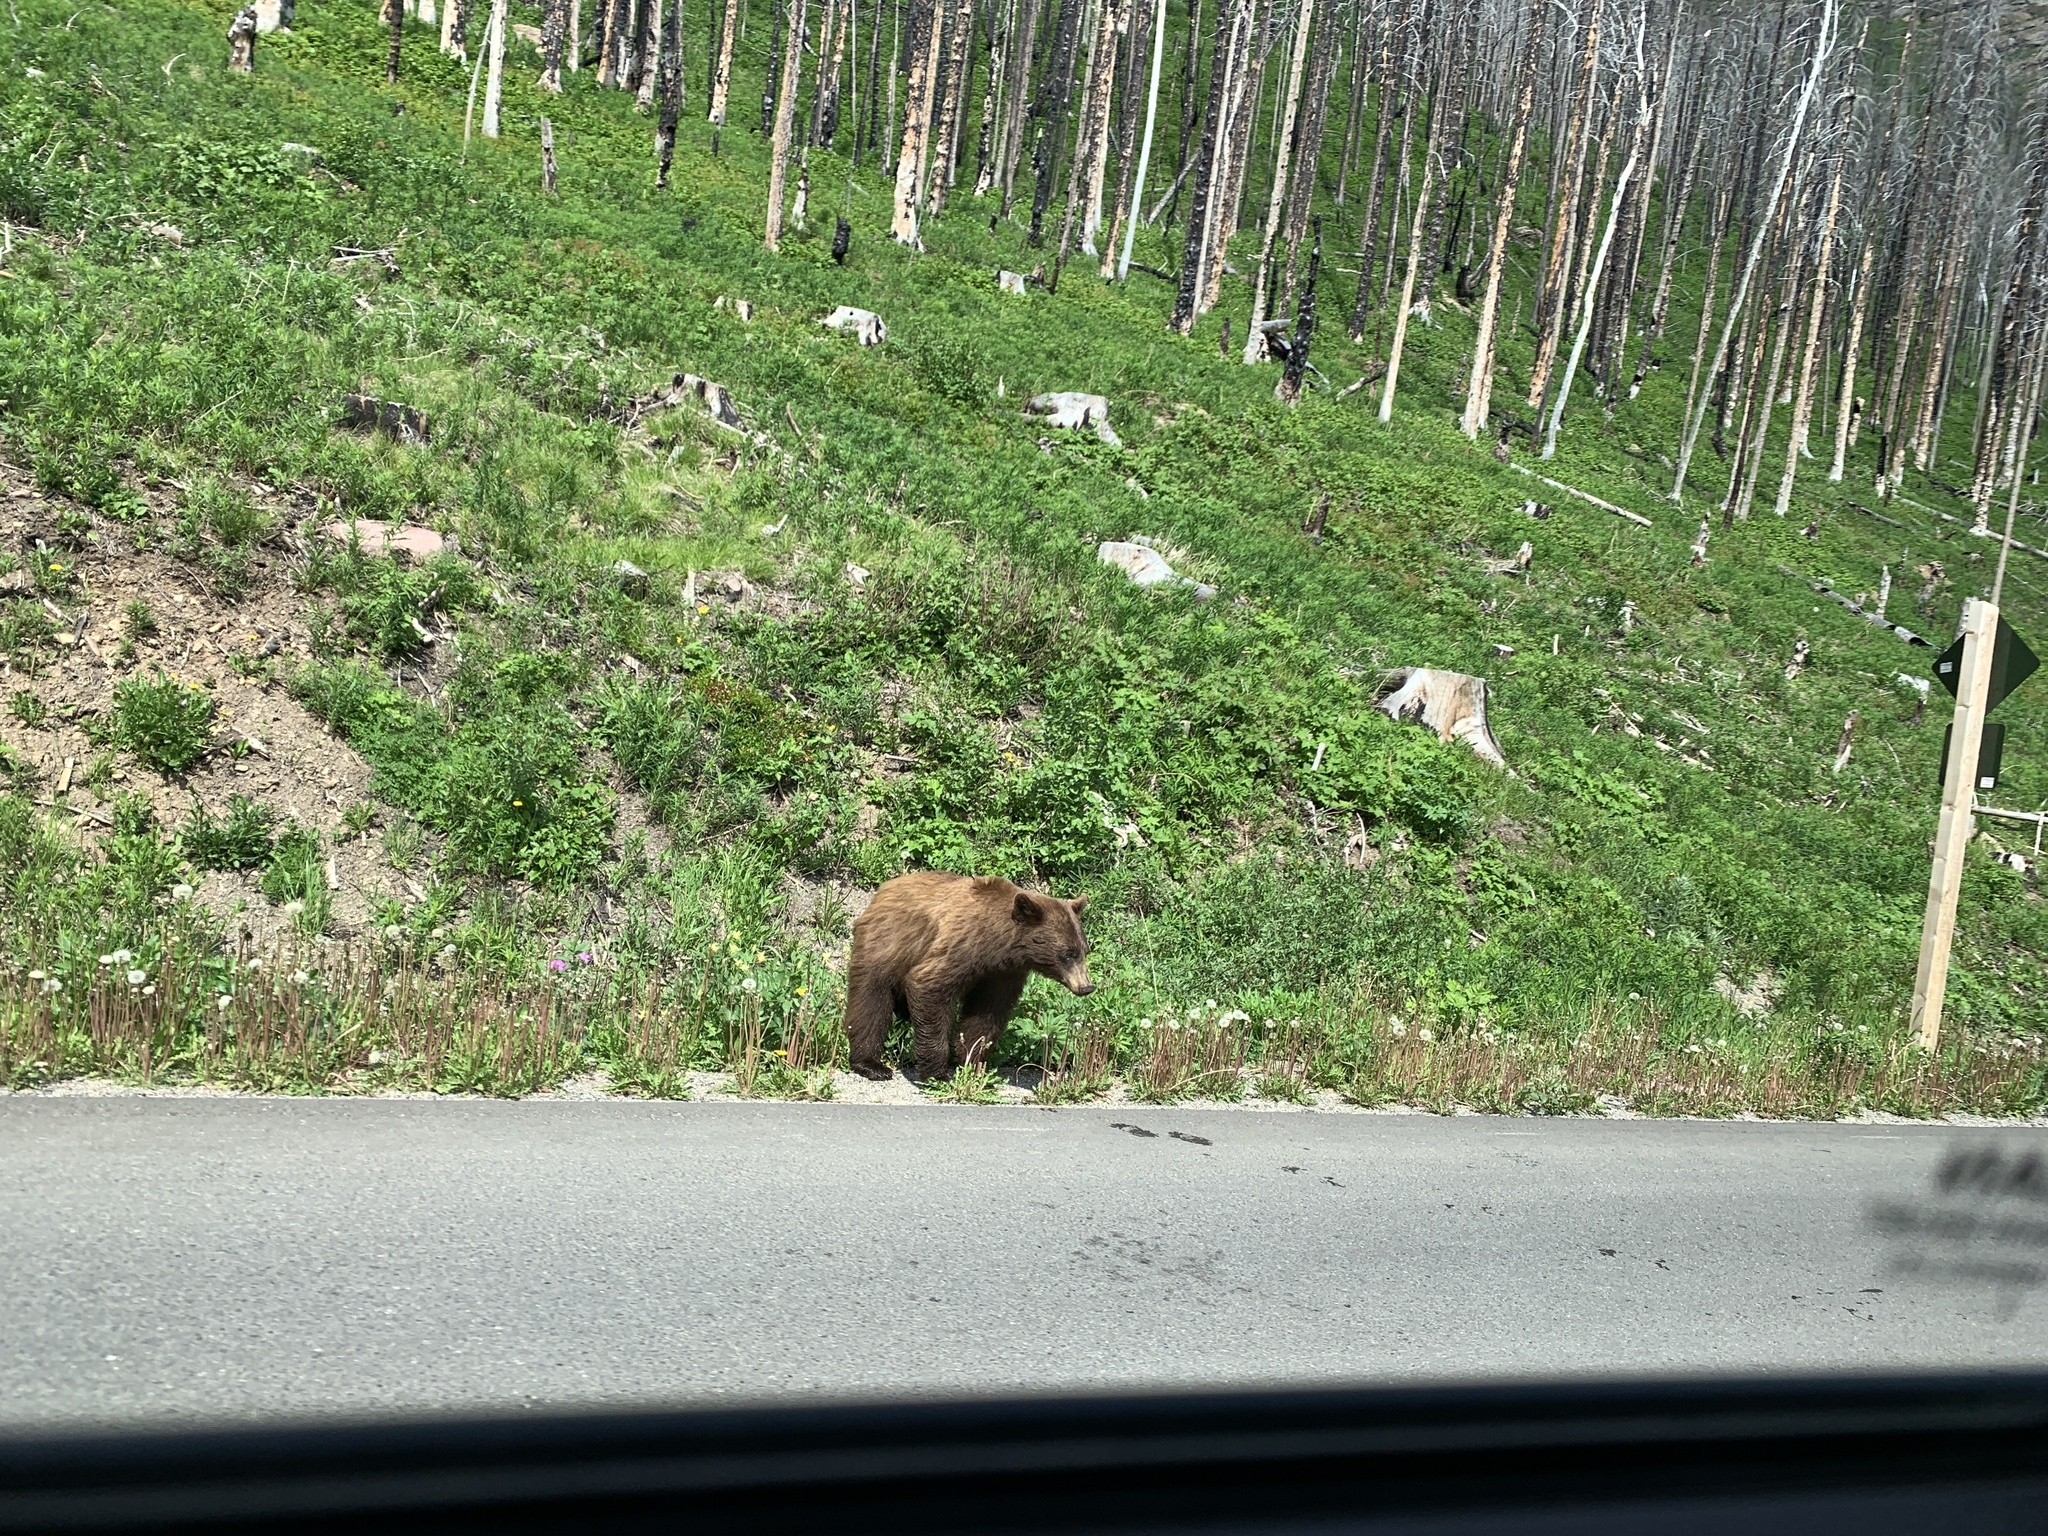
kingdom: Animalia
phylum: Chordata
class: Mammalia
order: Carnivora
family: Ursidae
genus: Ursus
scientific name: Ursus americanus
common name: American black bear
